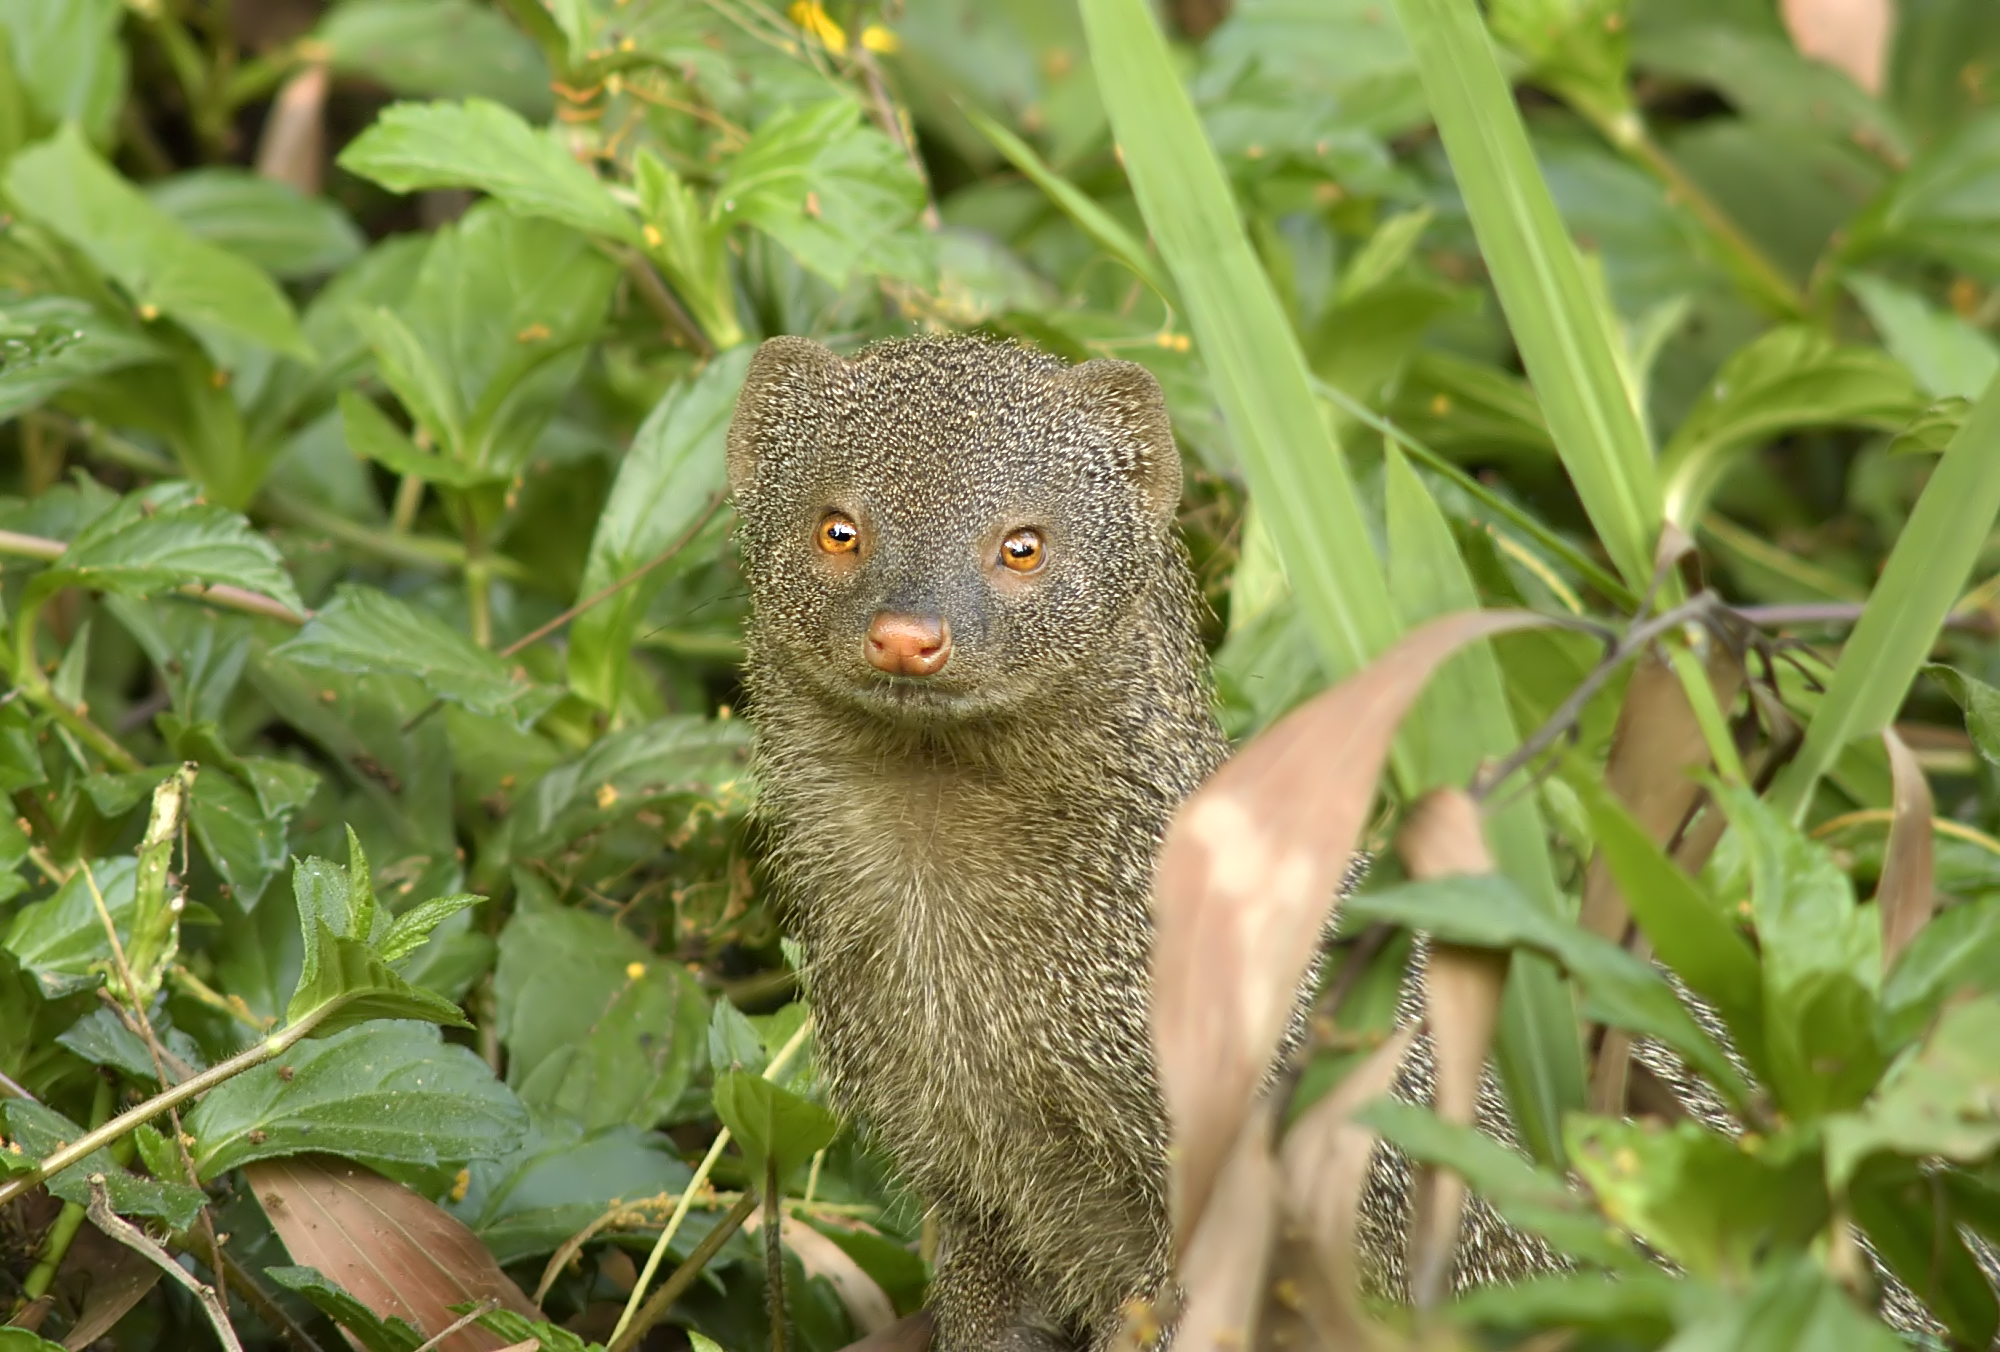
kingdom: Animalia
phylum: Chordata
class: Mammalia
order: Carnivora
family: Herpestidae
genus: Herpestes
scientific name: Herpestes edwardsi
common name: Indian gray mongoose
